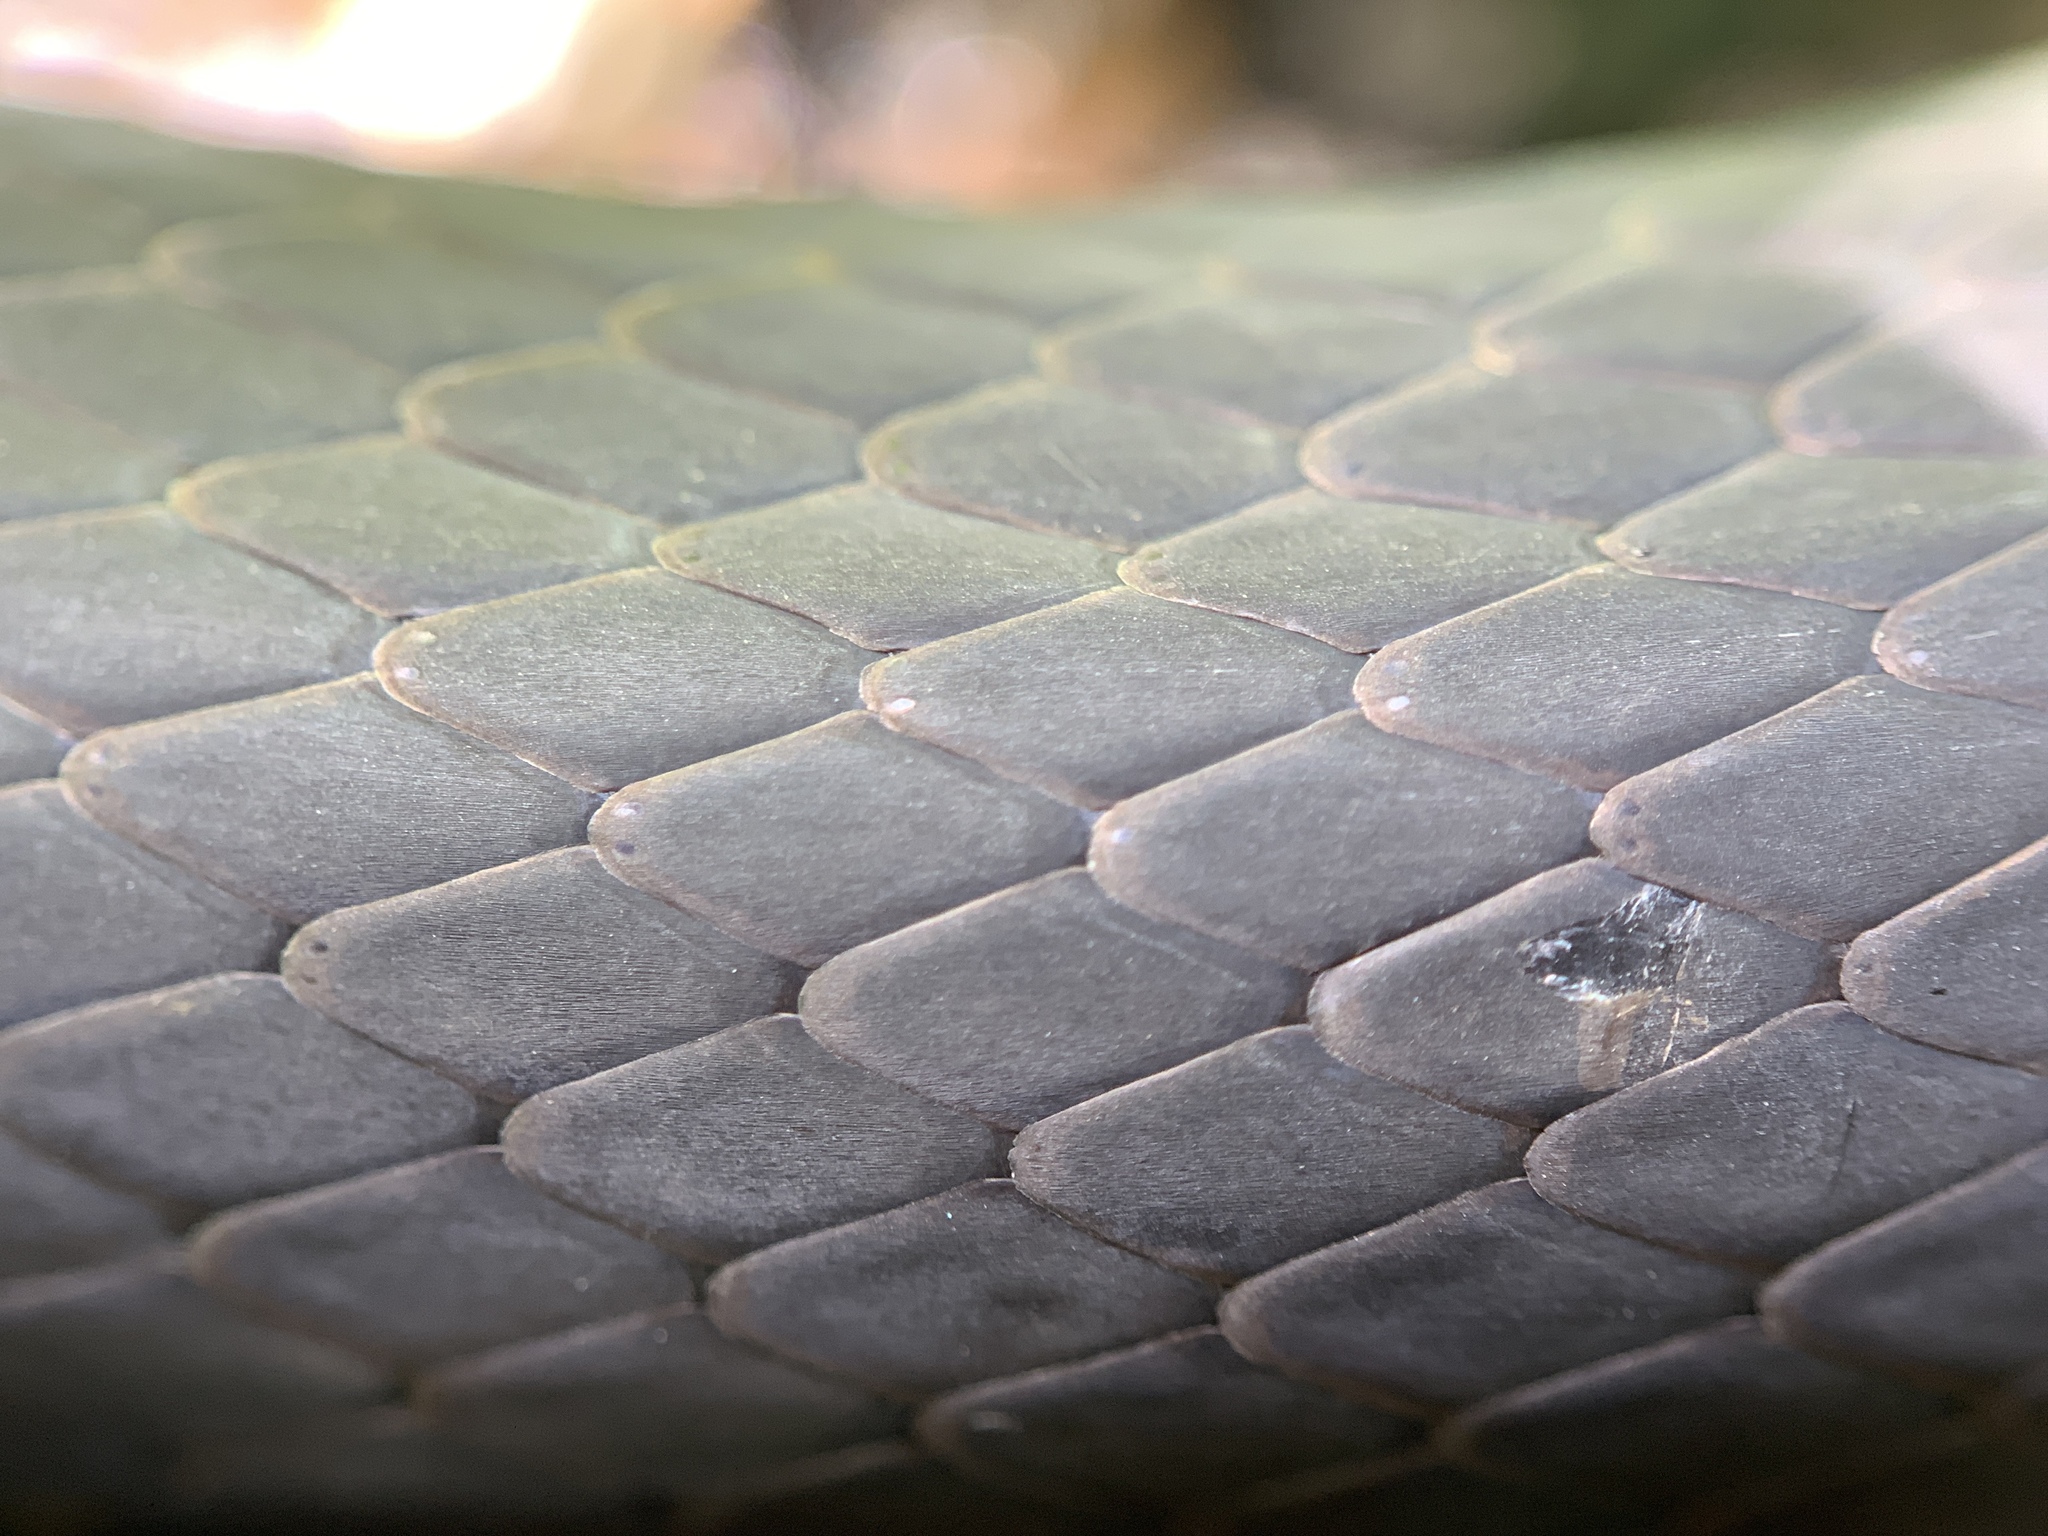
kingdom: Animalia
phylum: Chordata
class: Squamata
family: Colubridae
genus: Coluber
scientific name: Coluber constrictor
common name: Eastern racer
